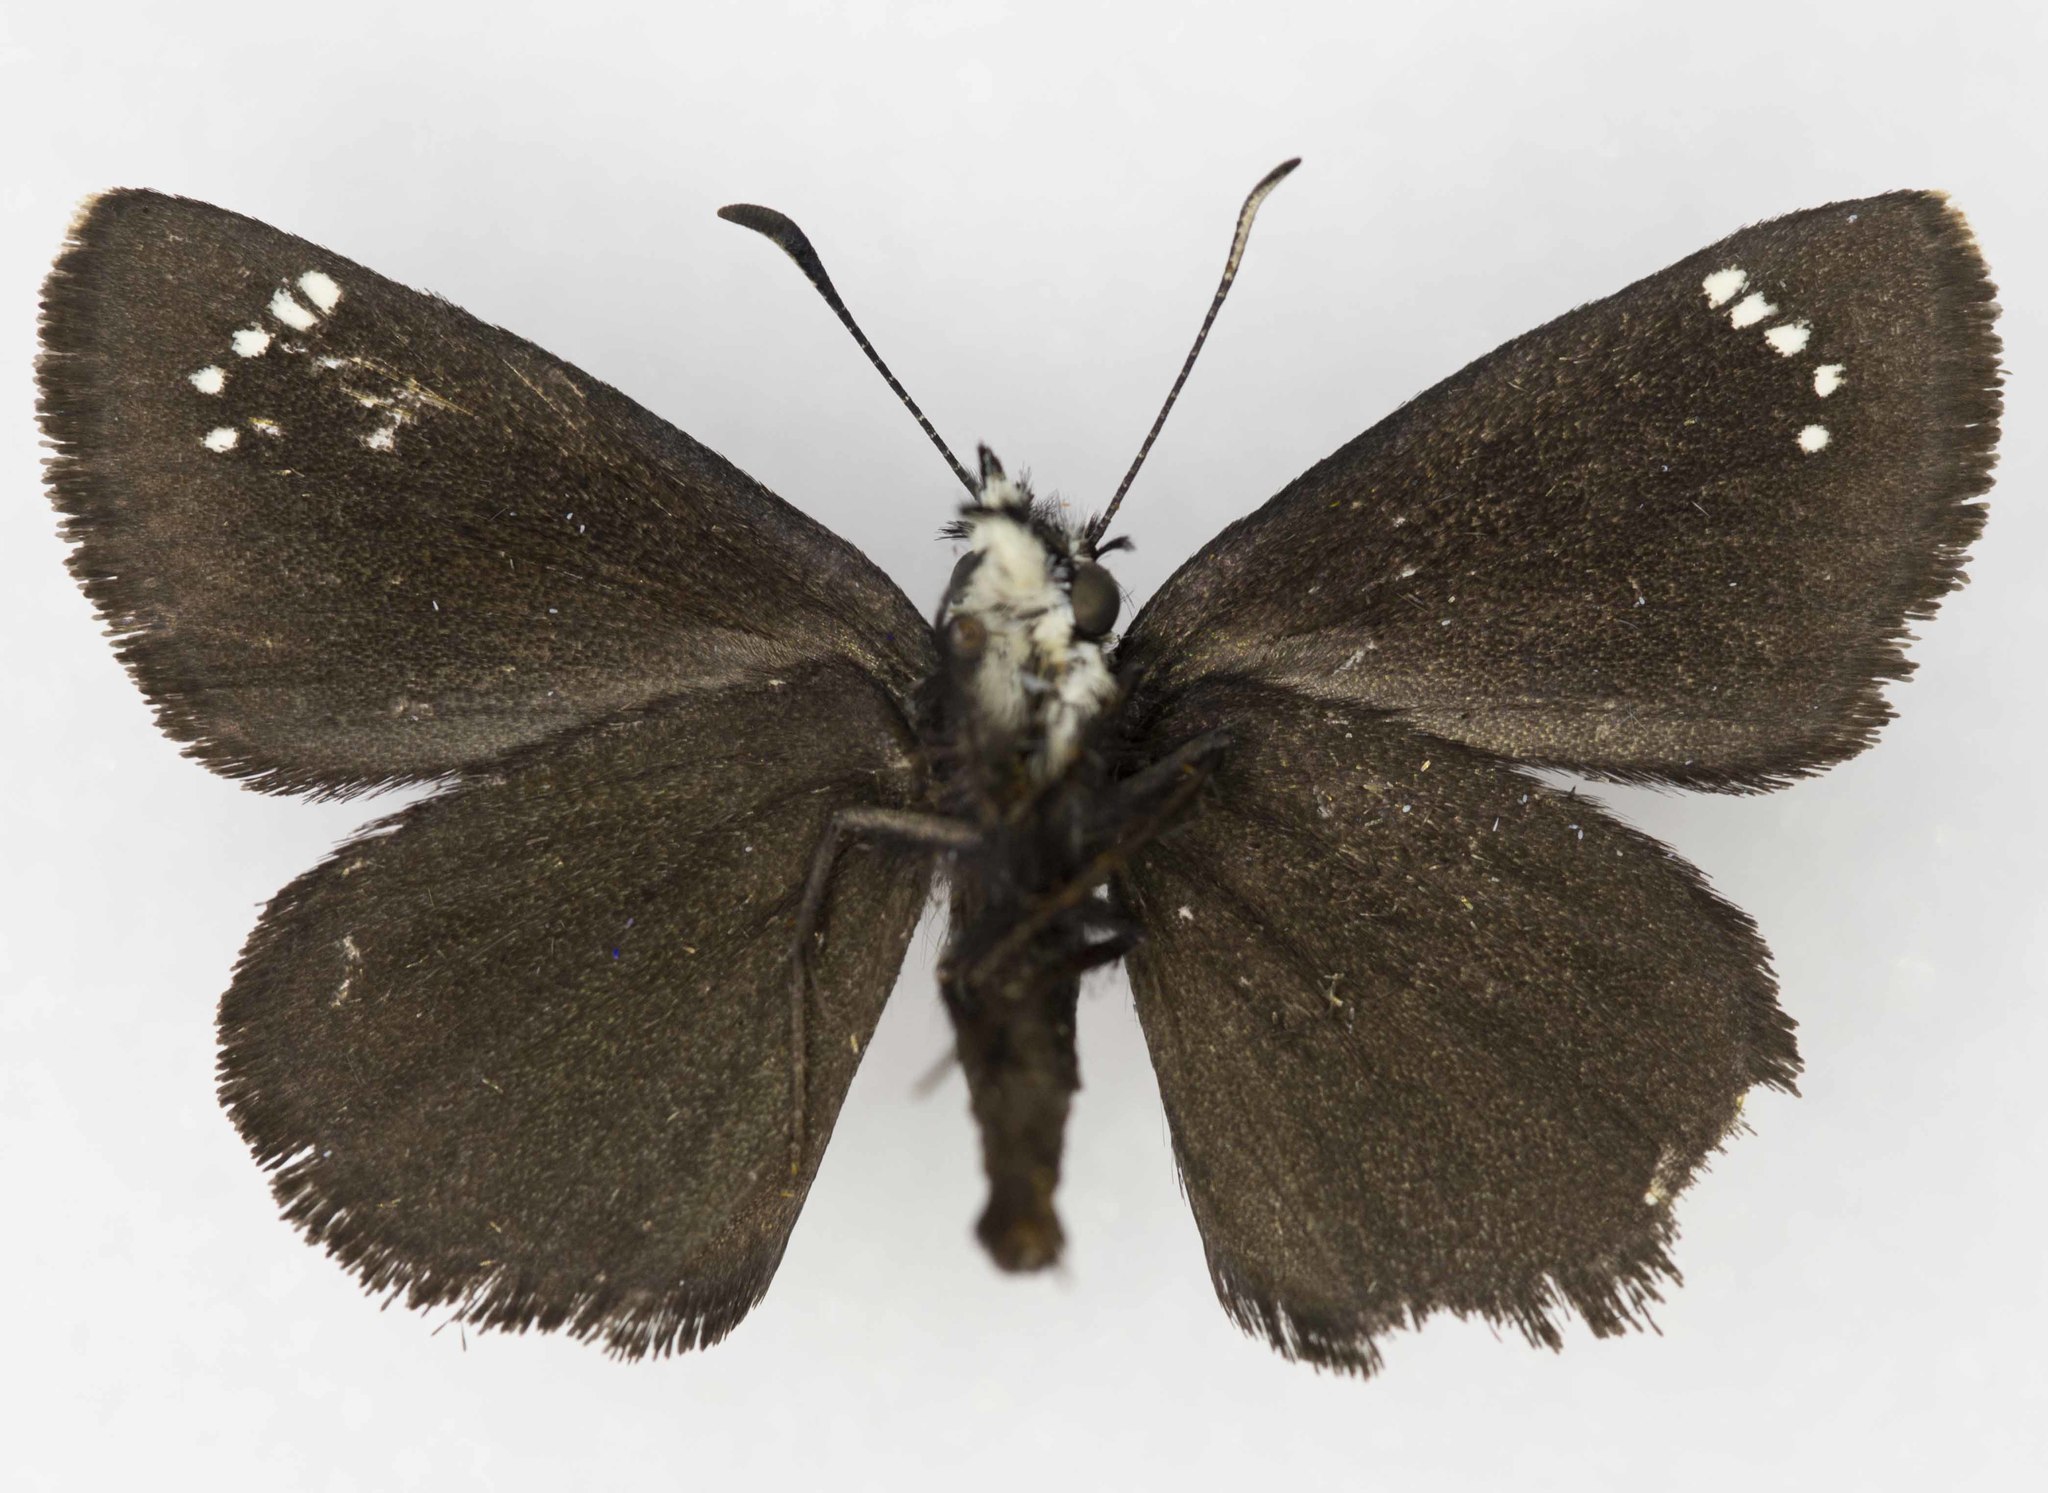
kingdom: Animalia
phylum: Arthropoda
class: Insecta
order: Lepidoptera
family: Hesperiidae
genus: Pholisora
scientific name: Pholisora catullus
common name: Common sootywing
